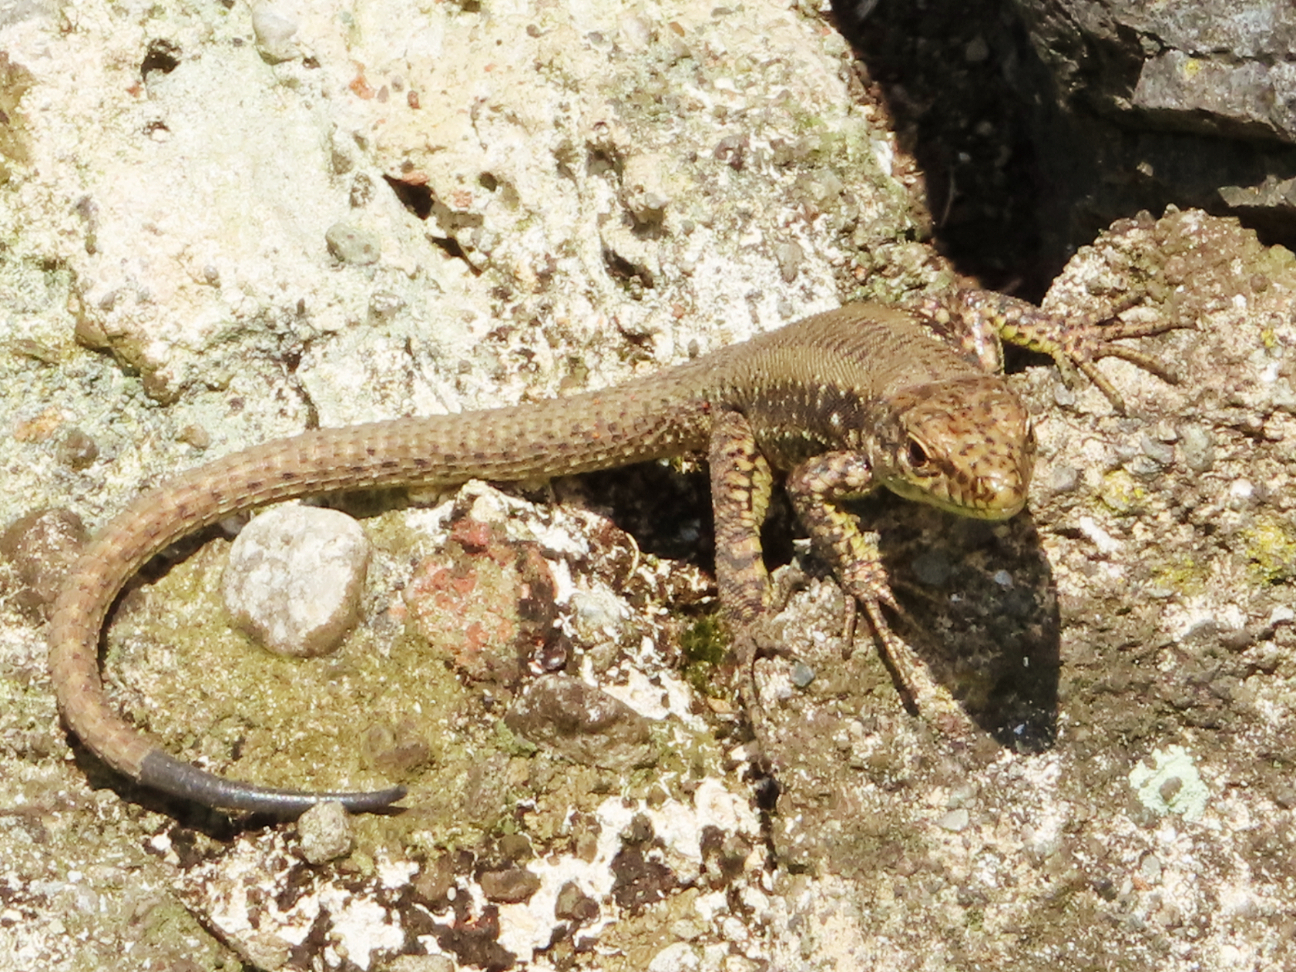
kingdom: Animalia
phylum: Chordata
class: Squamata
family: Lacertidae
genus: Darevskia
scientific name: Darevskia rudis
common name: Spiny-tailed lizard
